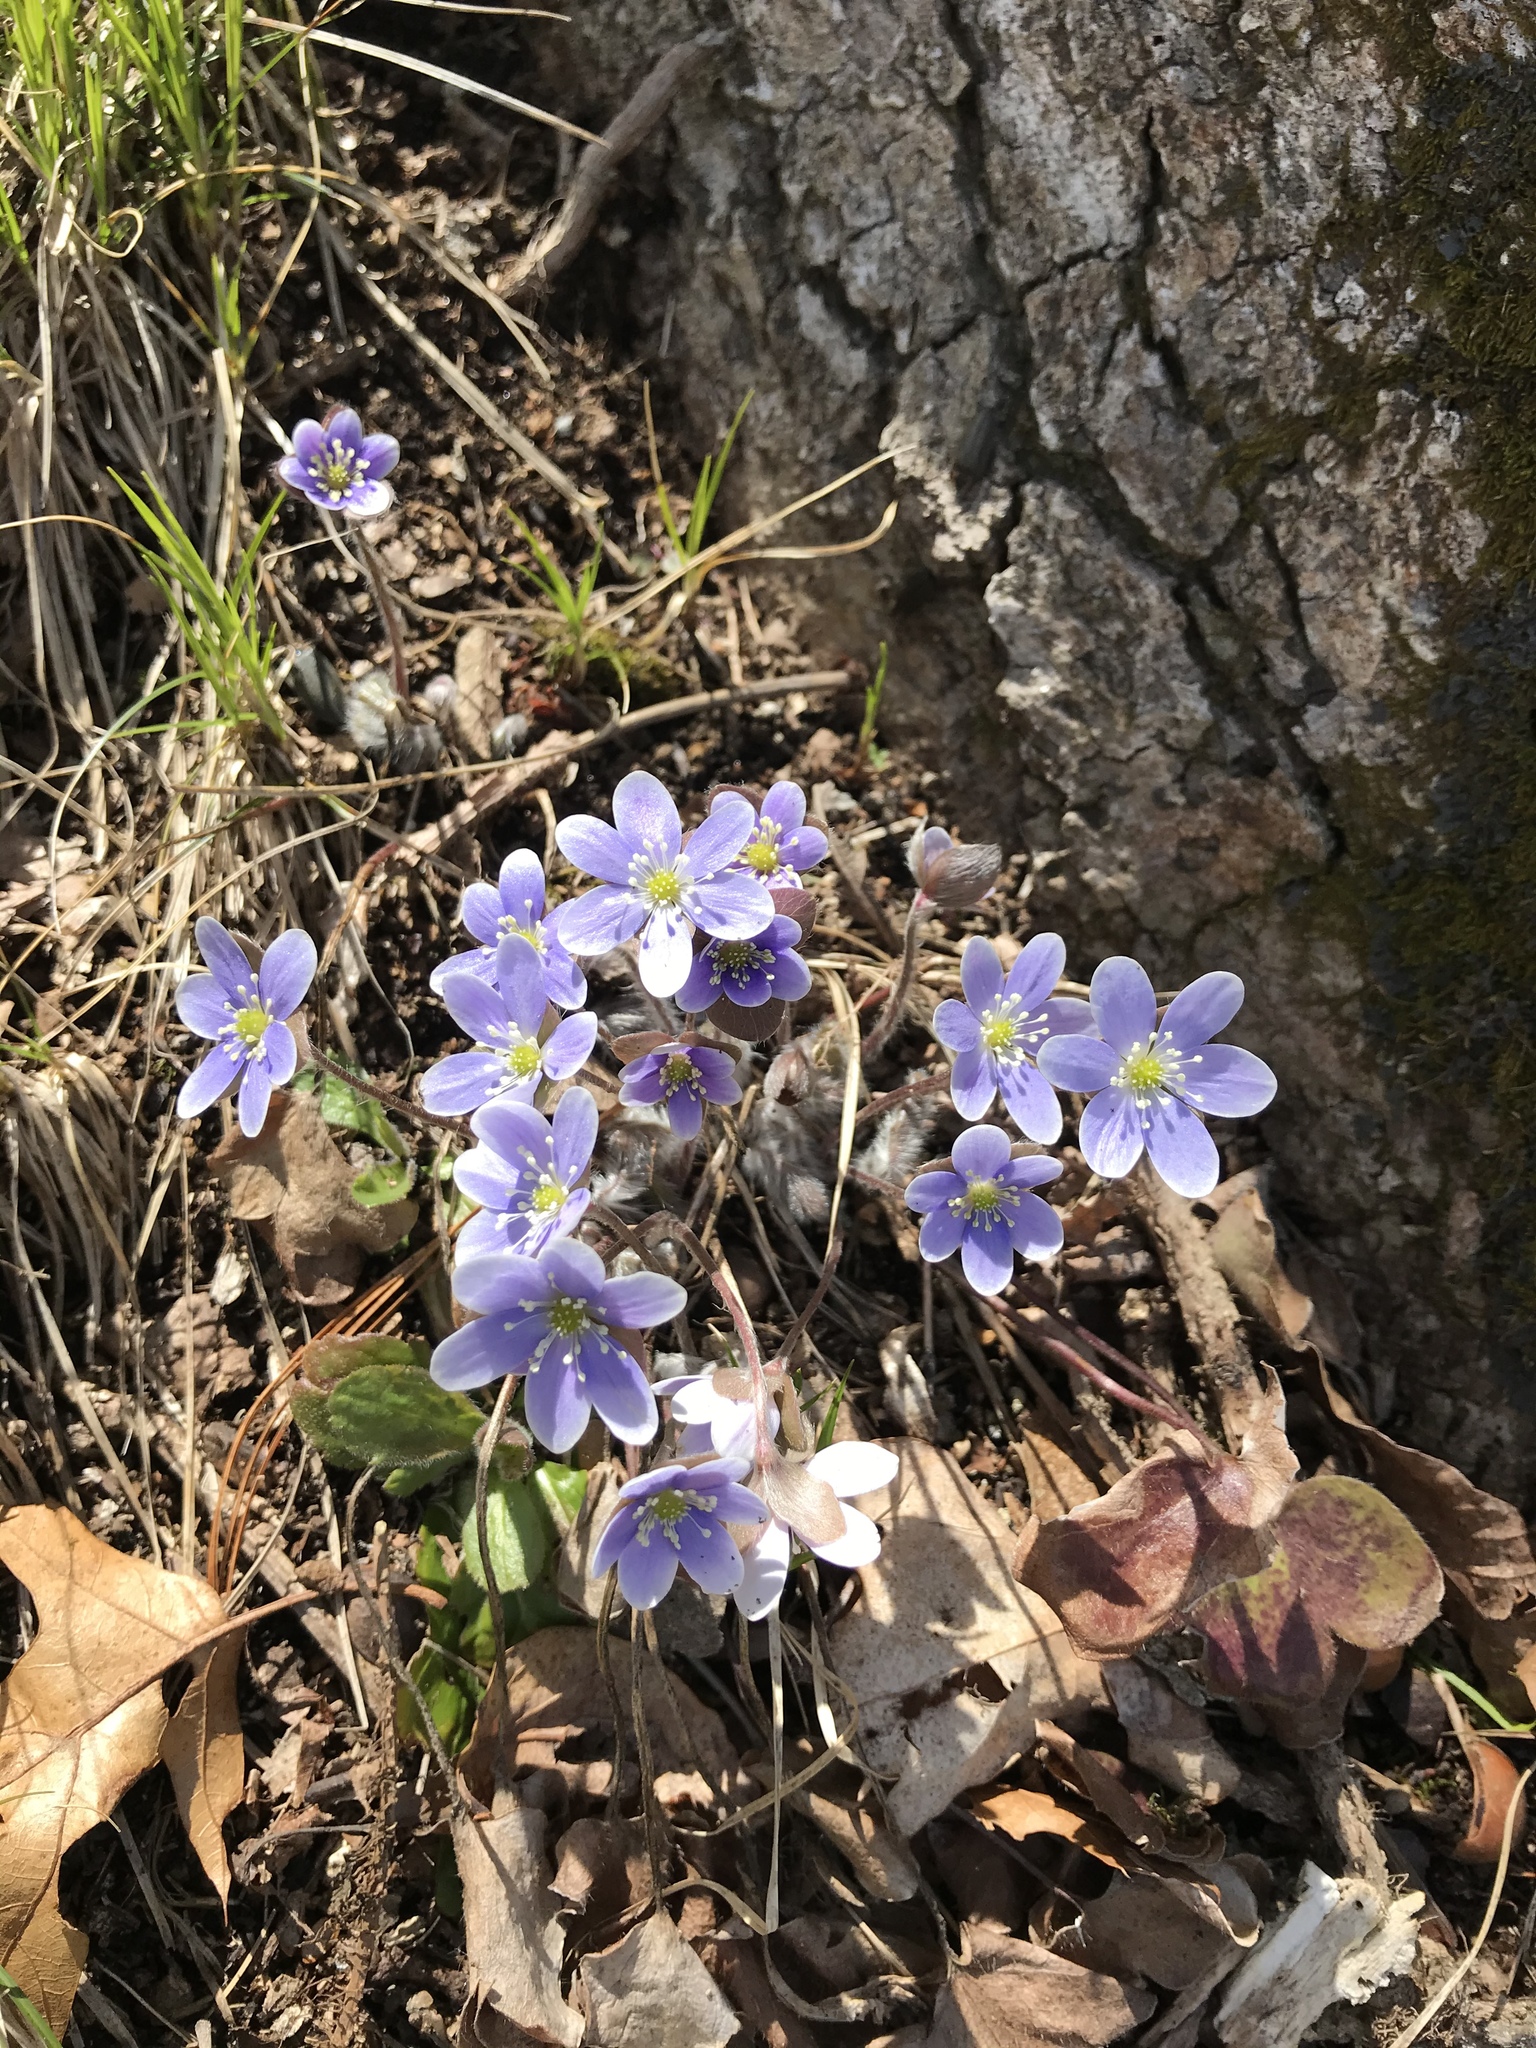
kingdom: Plantae
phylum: Tracheophyta
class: Magnoliopsida
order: Ranunculales
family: Ranunculaceae
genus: Hepatica
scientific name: Hepatica americana
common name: American hepatica
